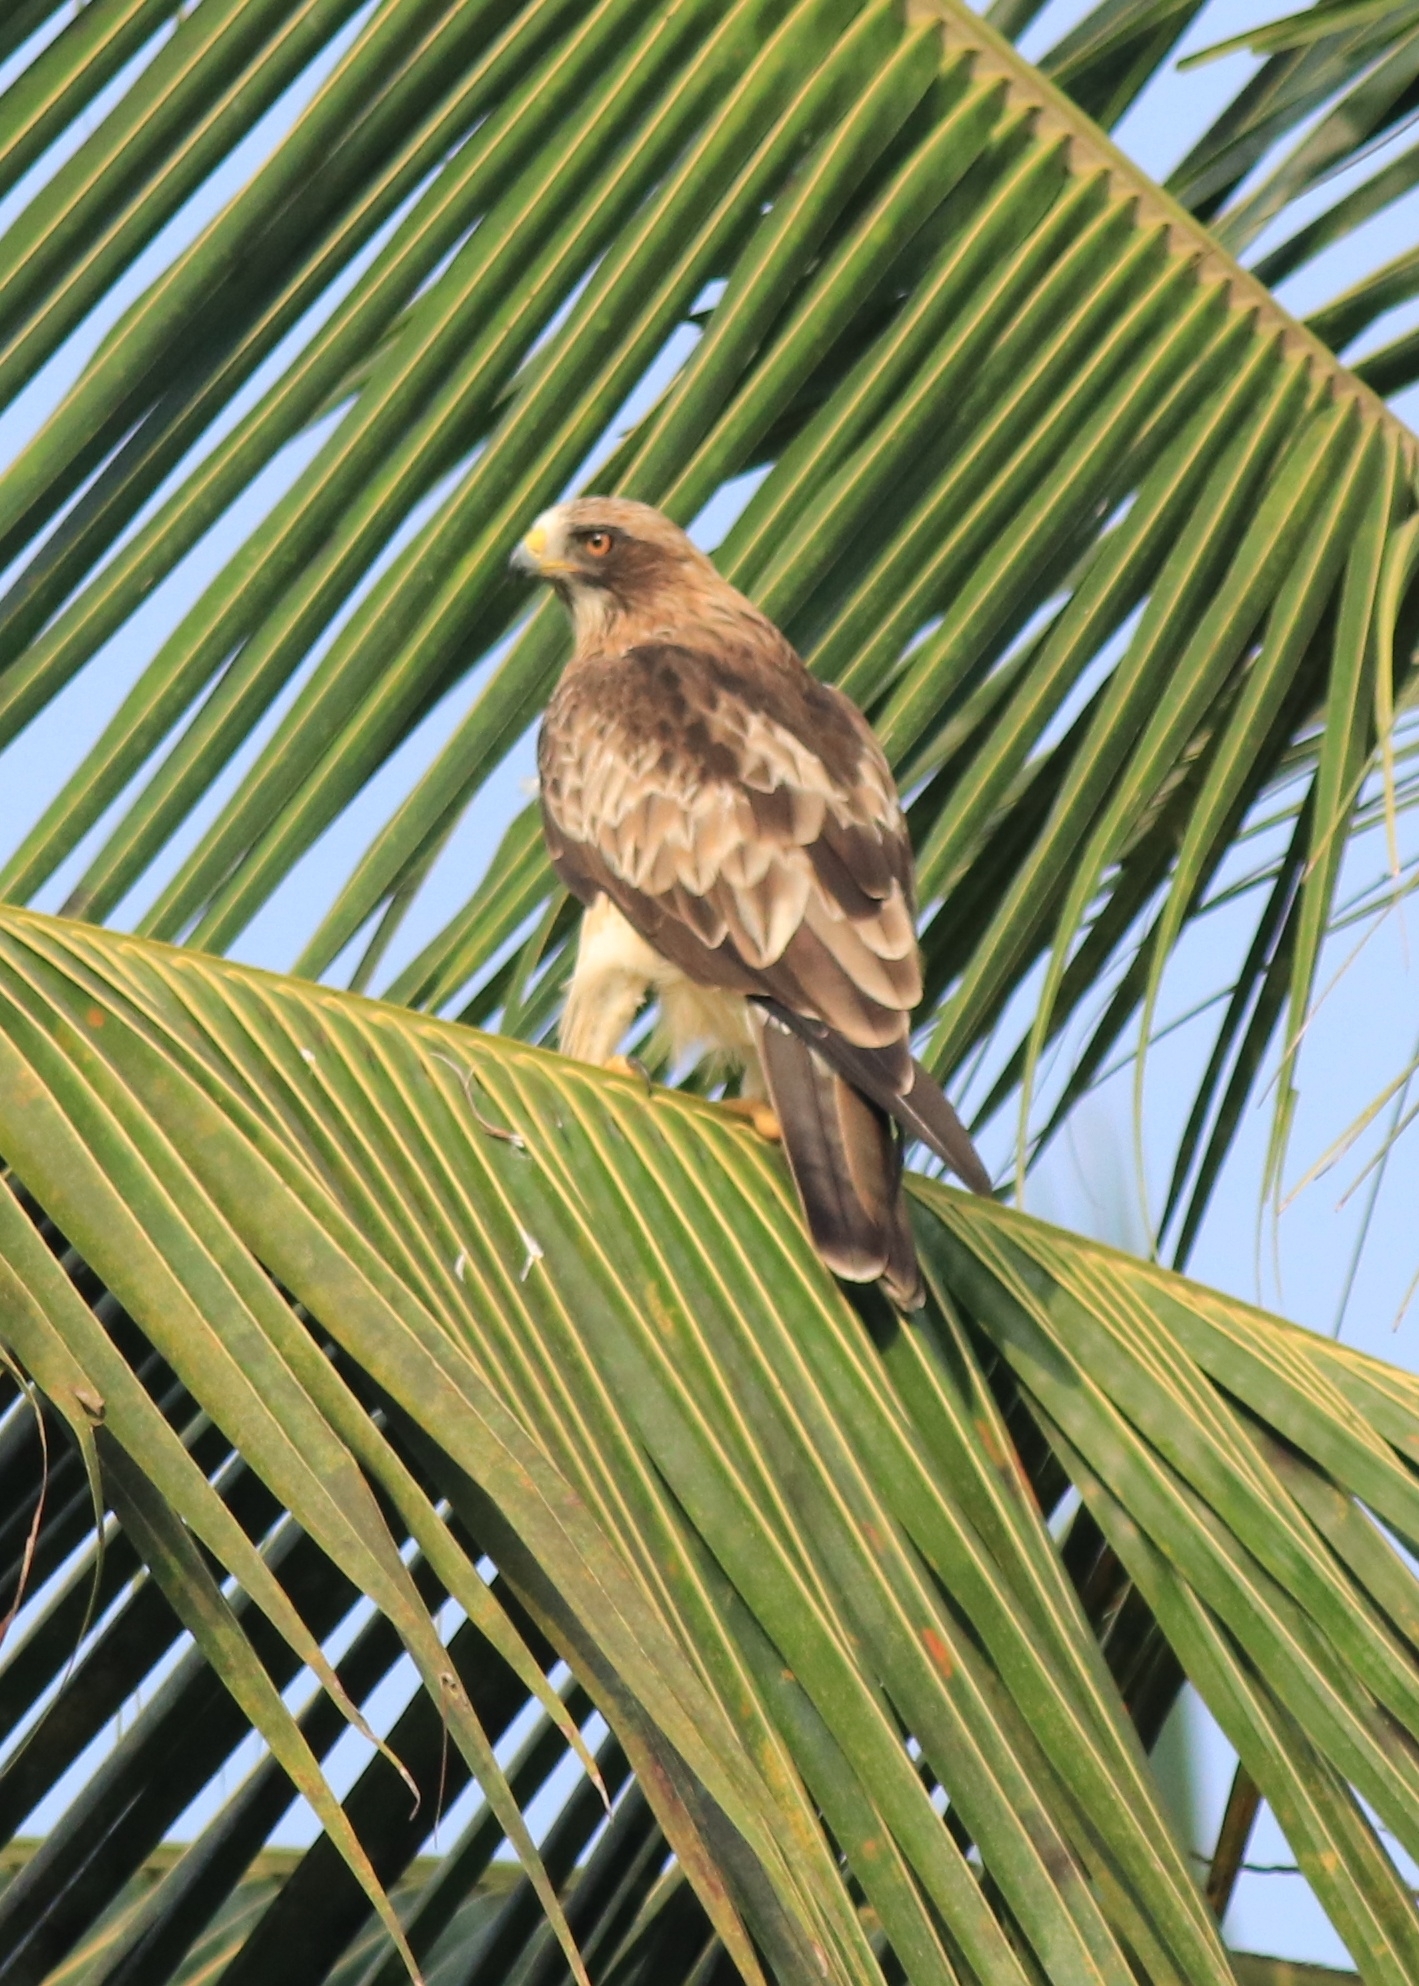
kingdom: Animalia
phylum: Chordata
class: Aves
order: Accipitriformes
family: Accipitridae
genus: Hieraaetus
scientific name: Hieraaetus pennatus
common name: Booted eagle
